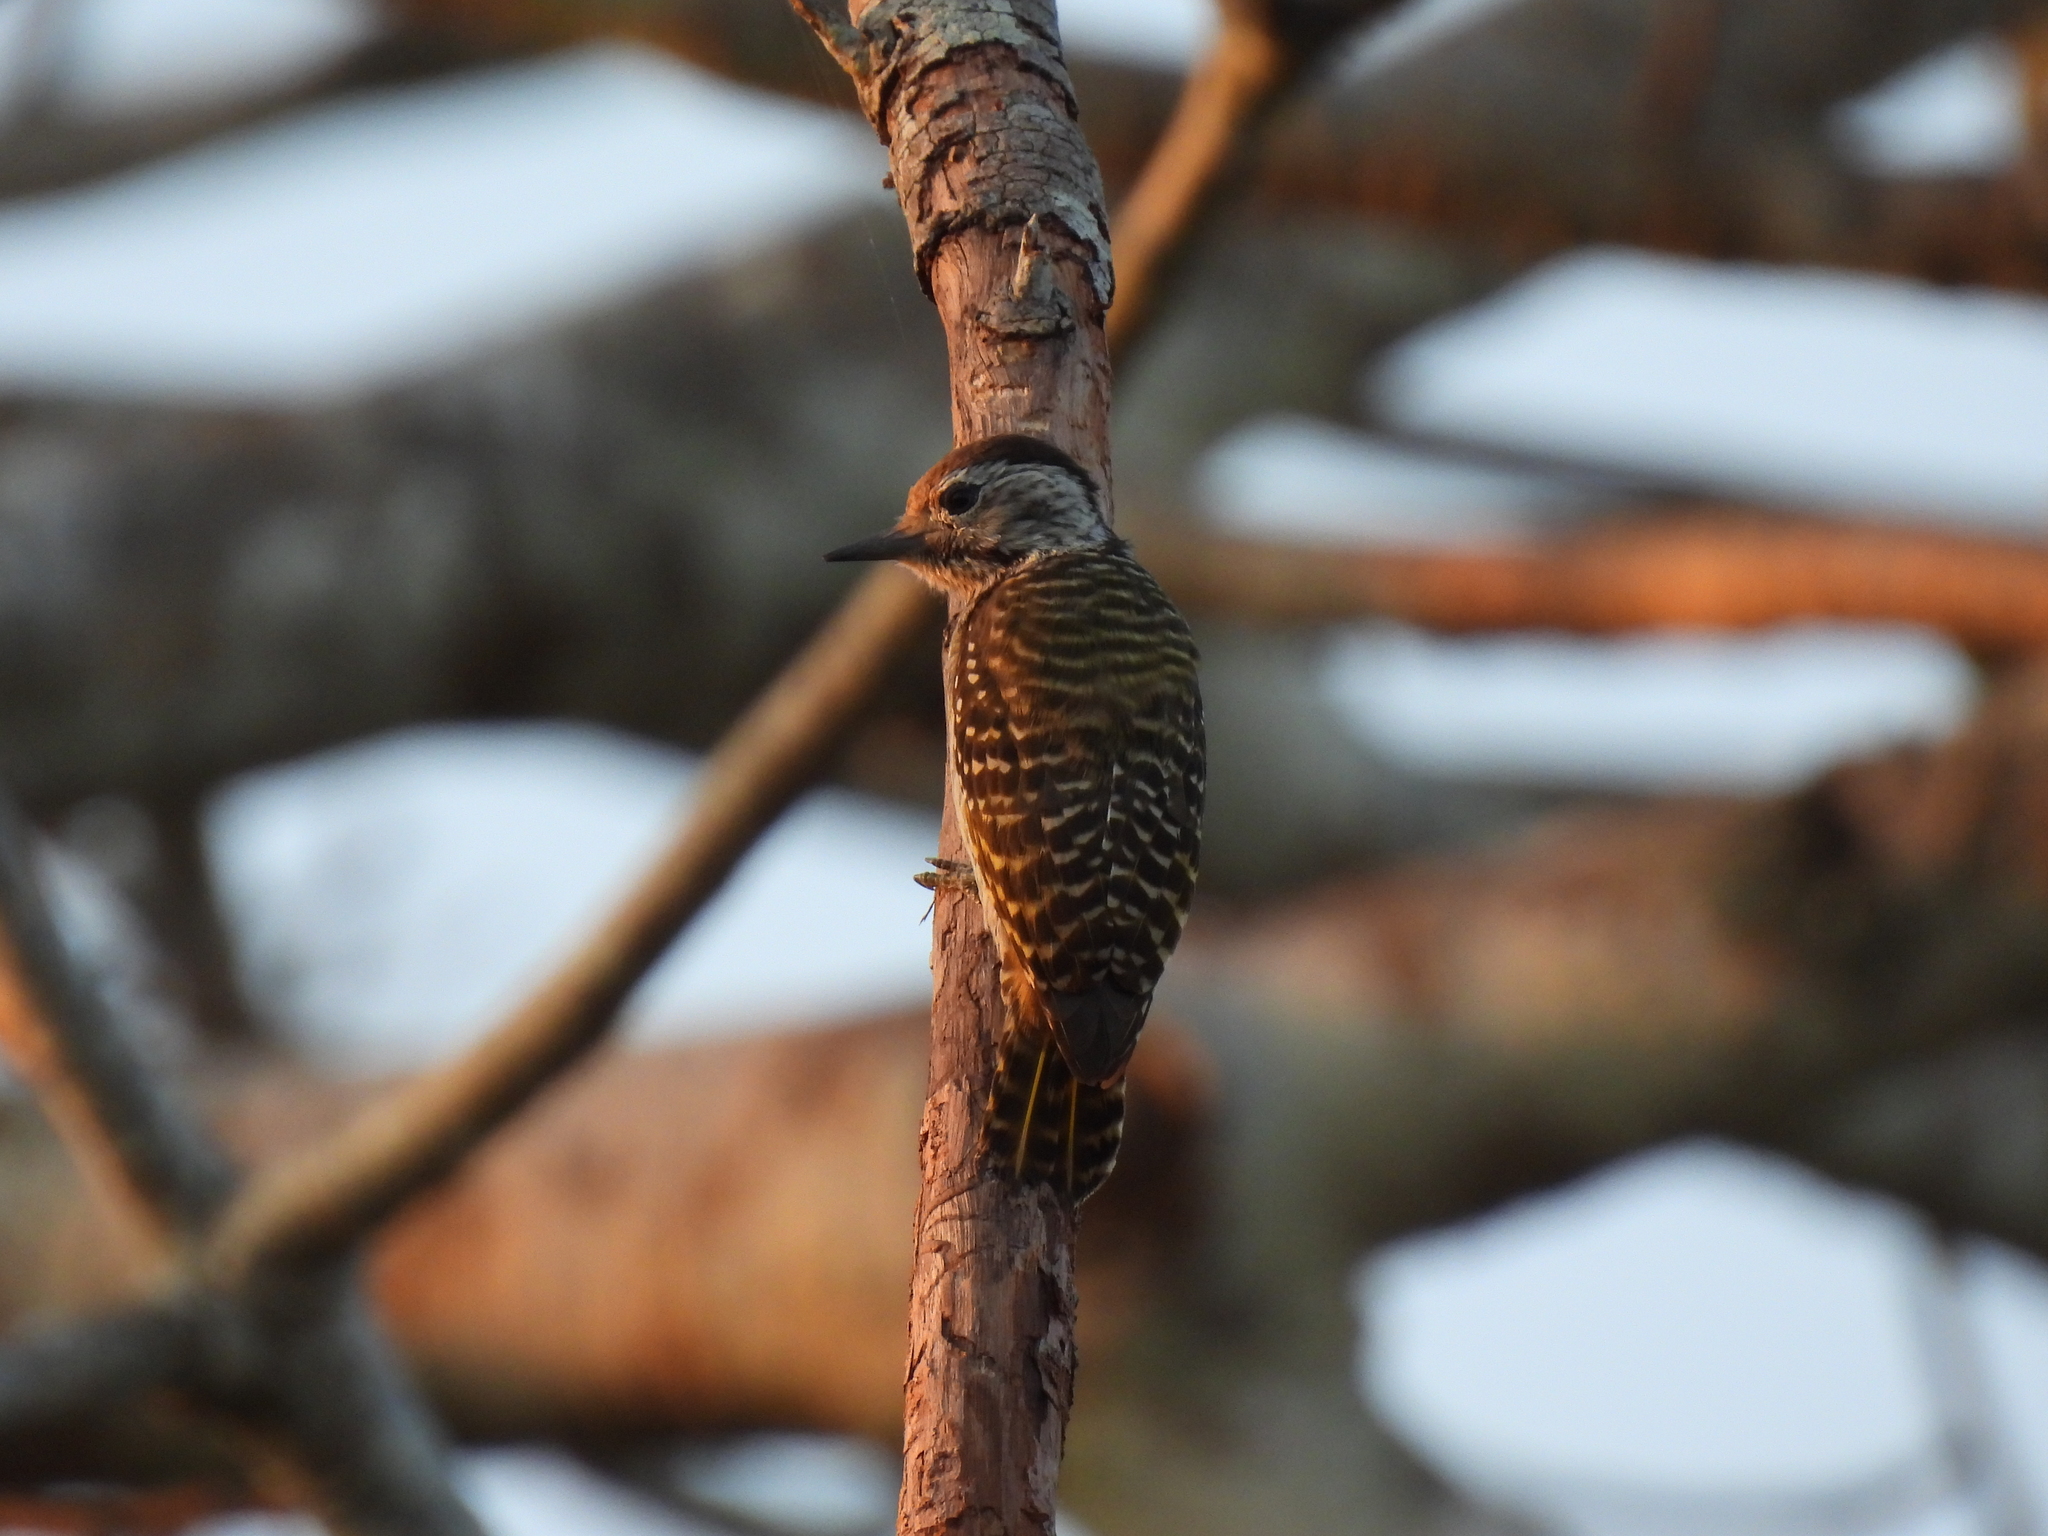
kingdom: Animalia
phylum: Chordata
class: Aves
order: Piciformes
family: Picidae
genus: Dendropicos
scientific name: Dendropicos fuscescens
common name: Cardinal woodpecker
